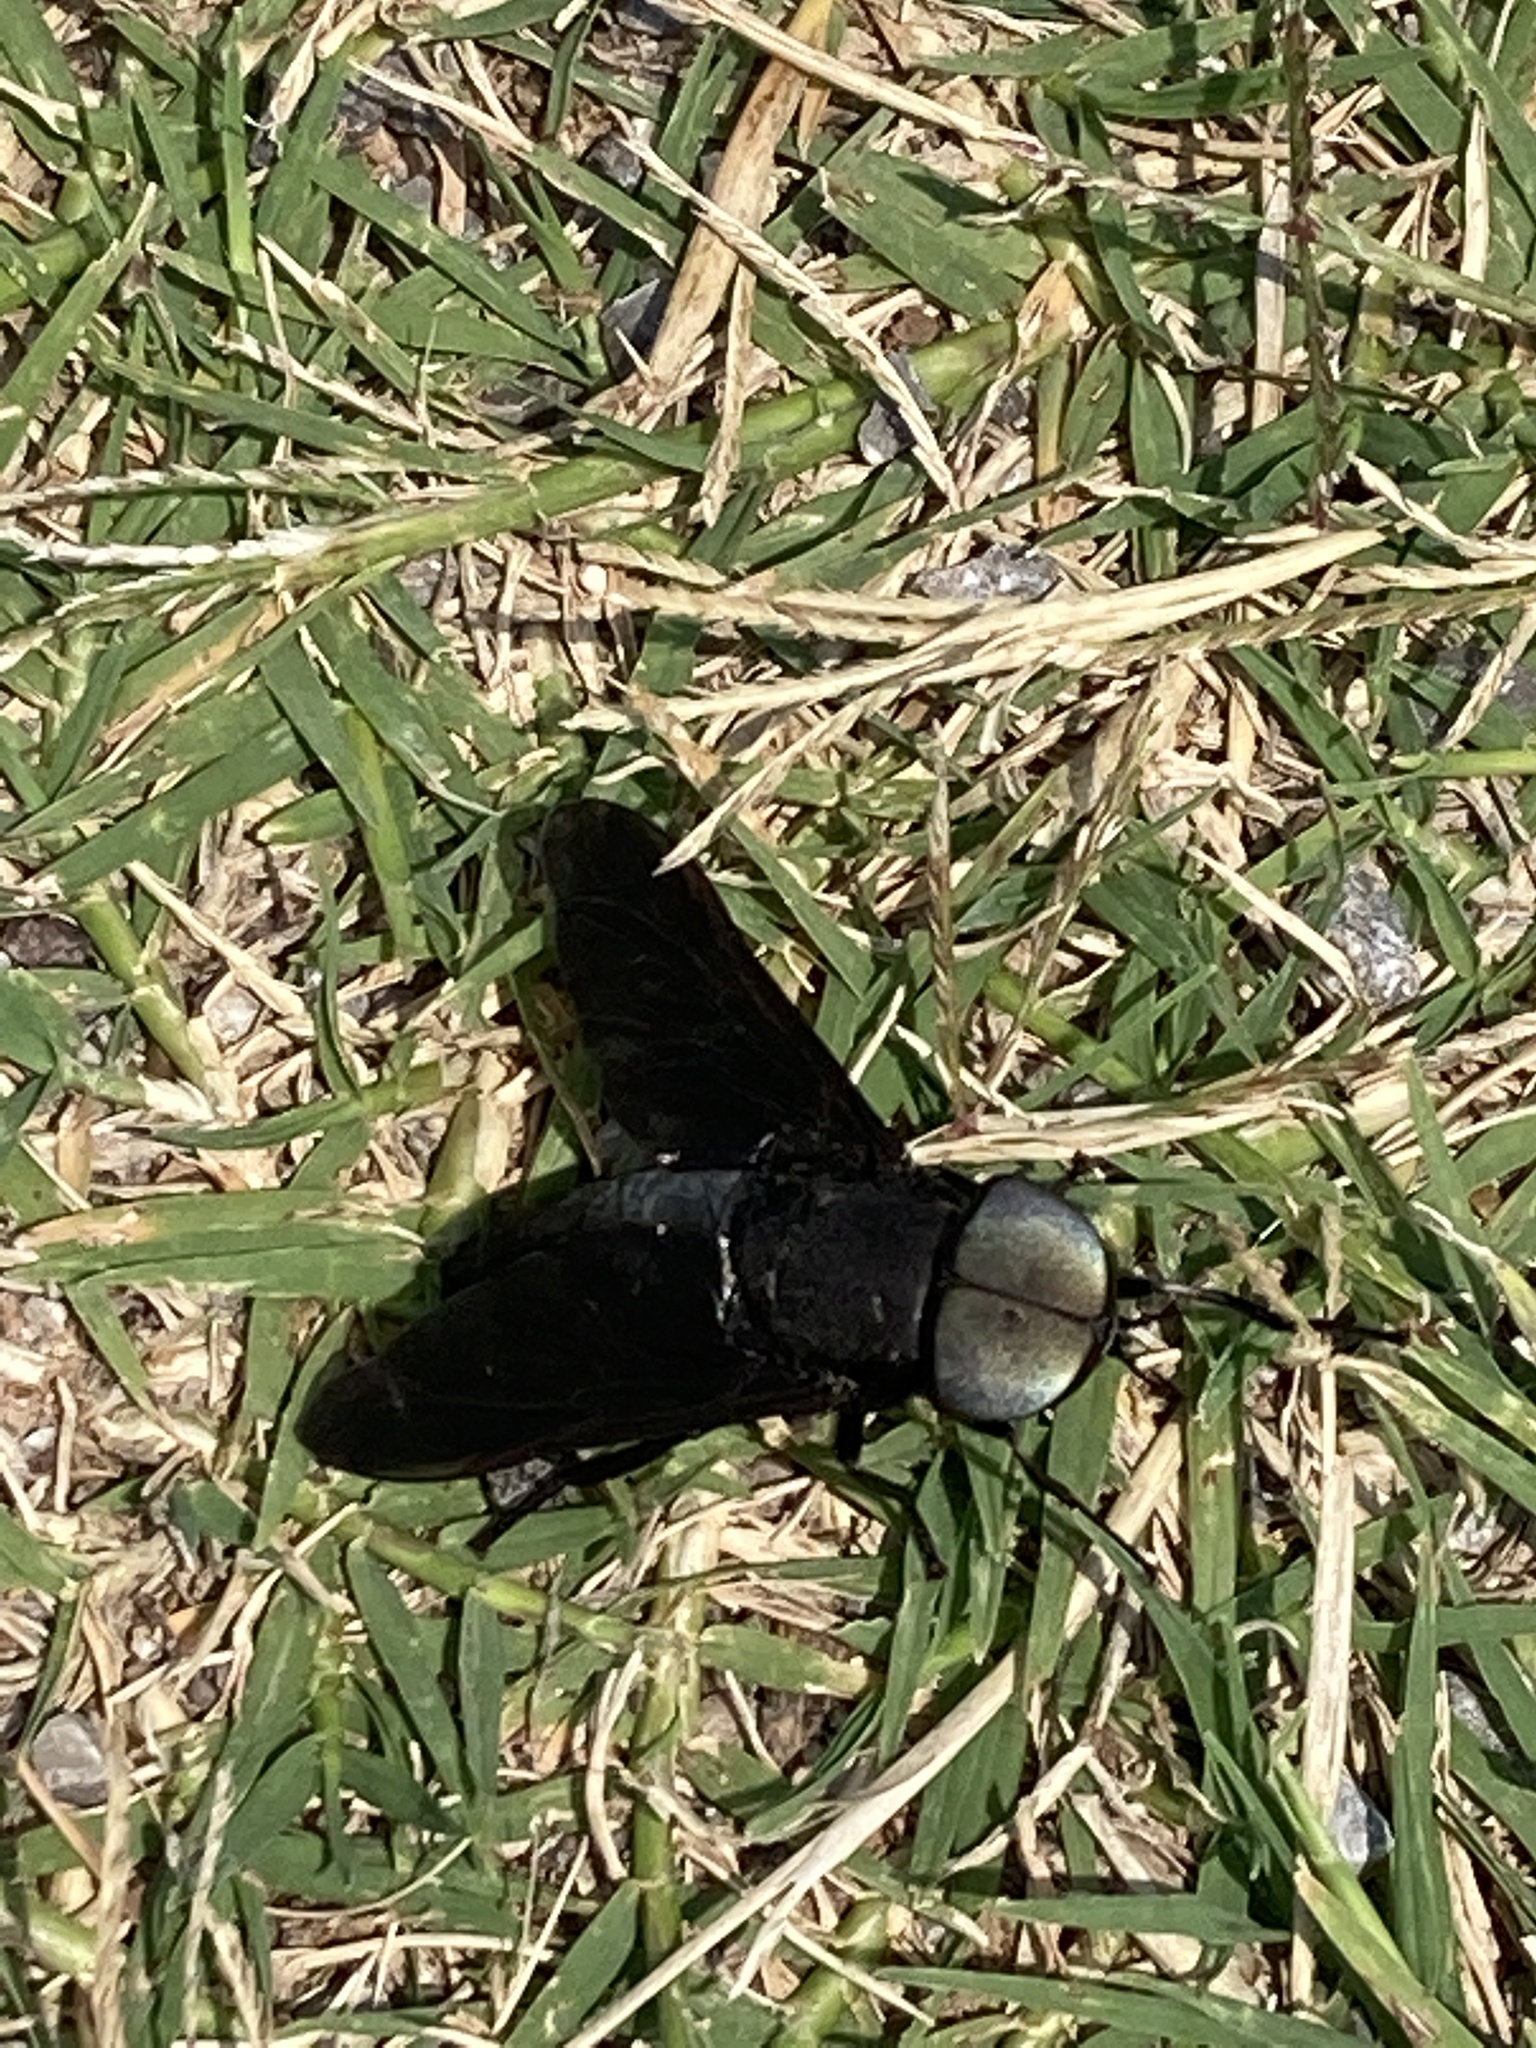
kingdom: Animalia
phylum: Arthropoda
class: Insecta
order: Diptera
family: Tabanidae
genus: Tabanus
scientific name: Tabanus atratus
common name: Black horse fly
